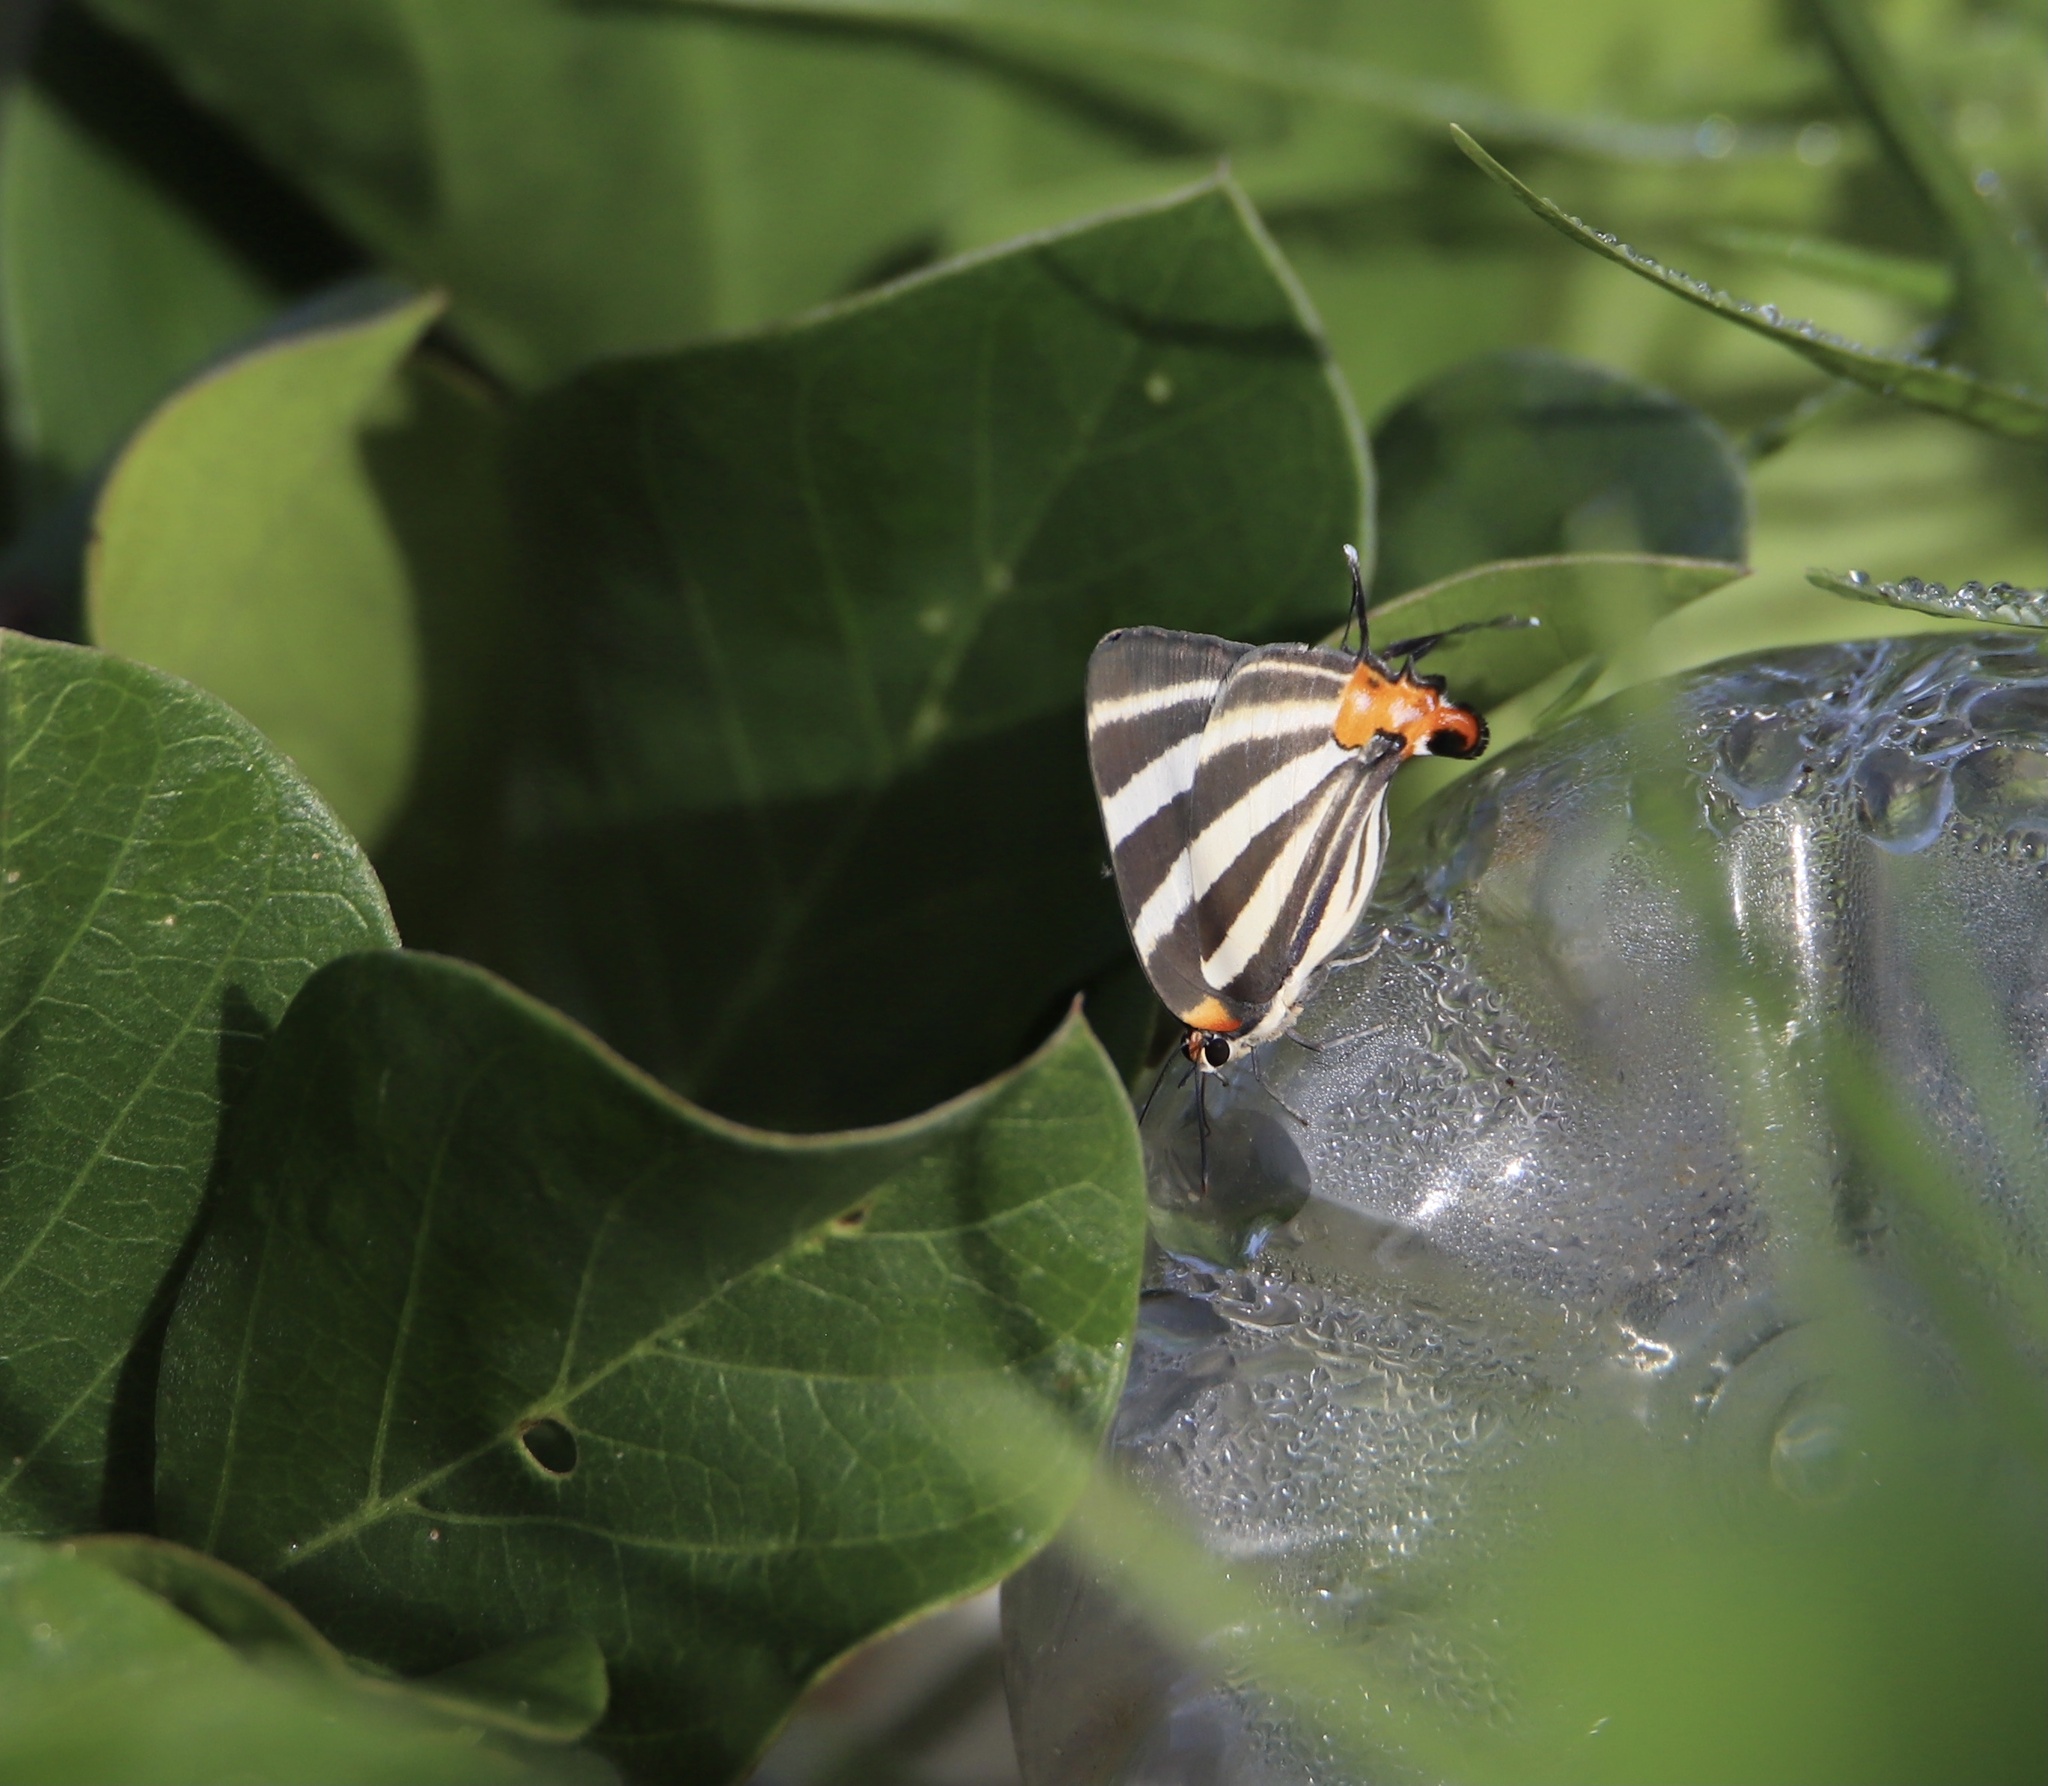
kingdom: Animalia
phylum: Arthropoda
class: Insecta
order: Lepidoptera
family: Lycaenidae
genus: Thecla
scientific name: Thecla bathildis
